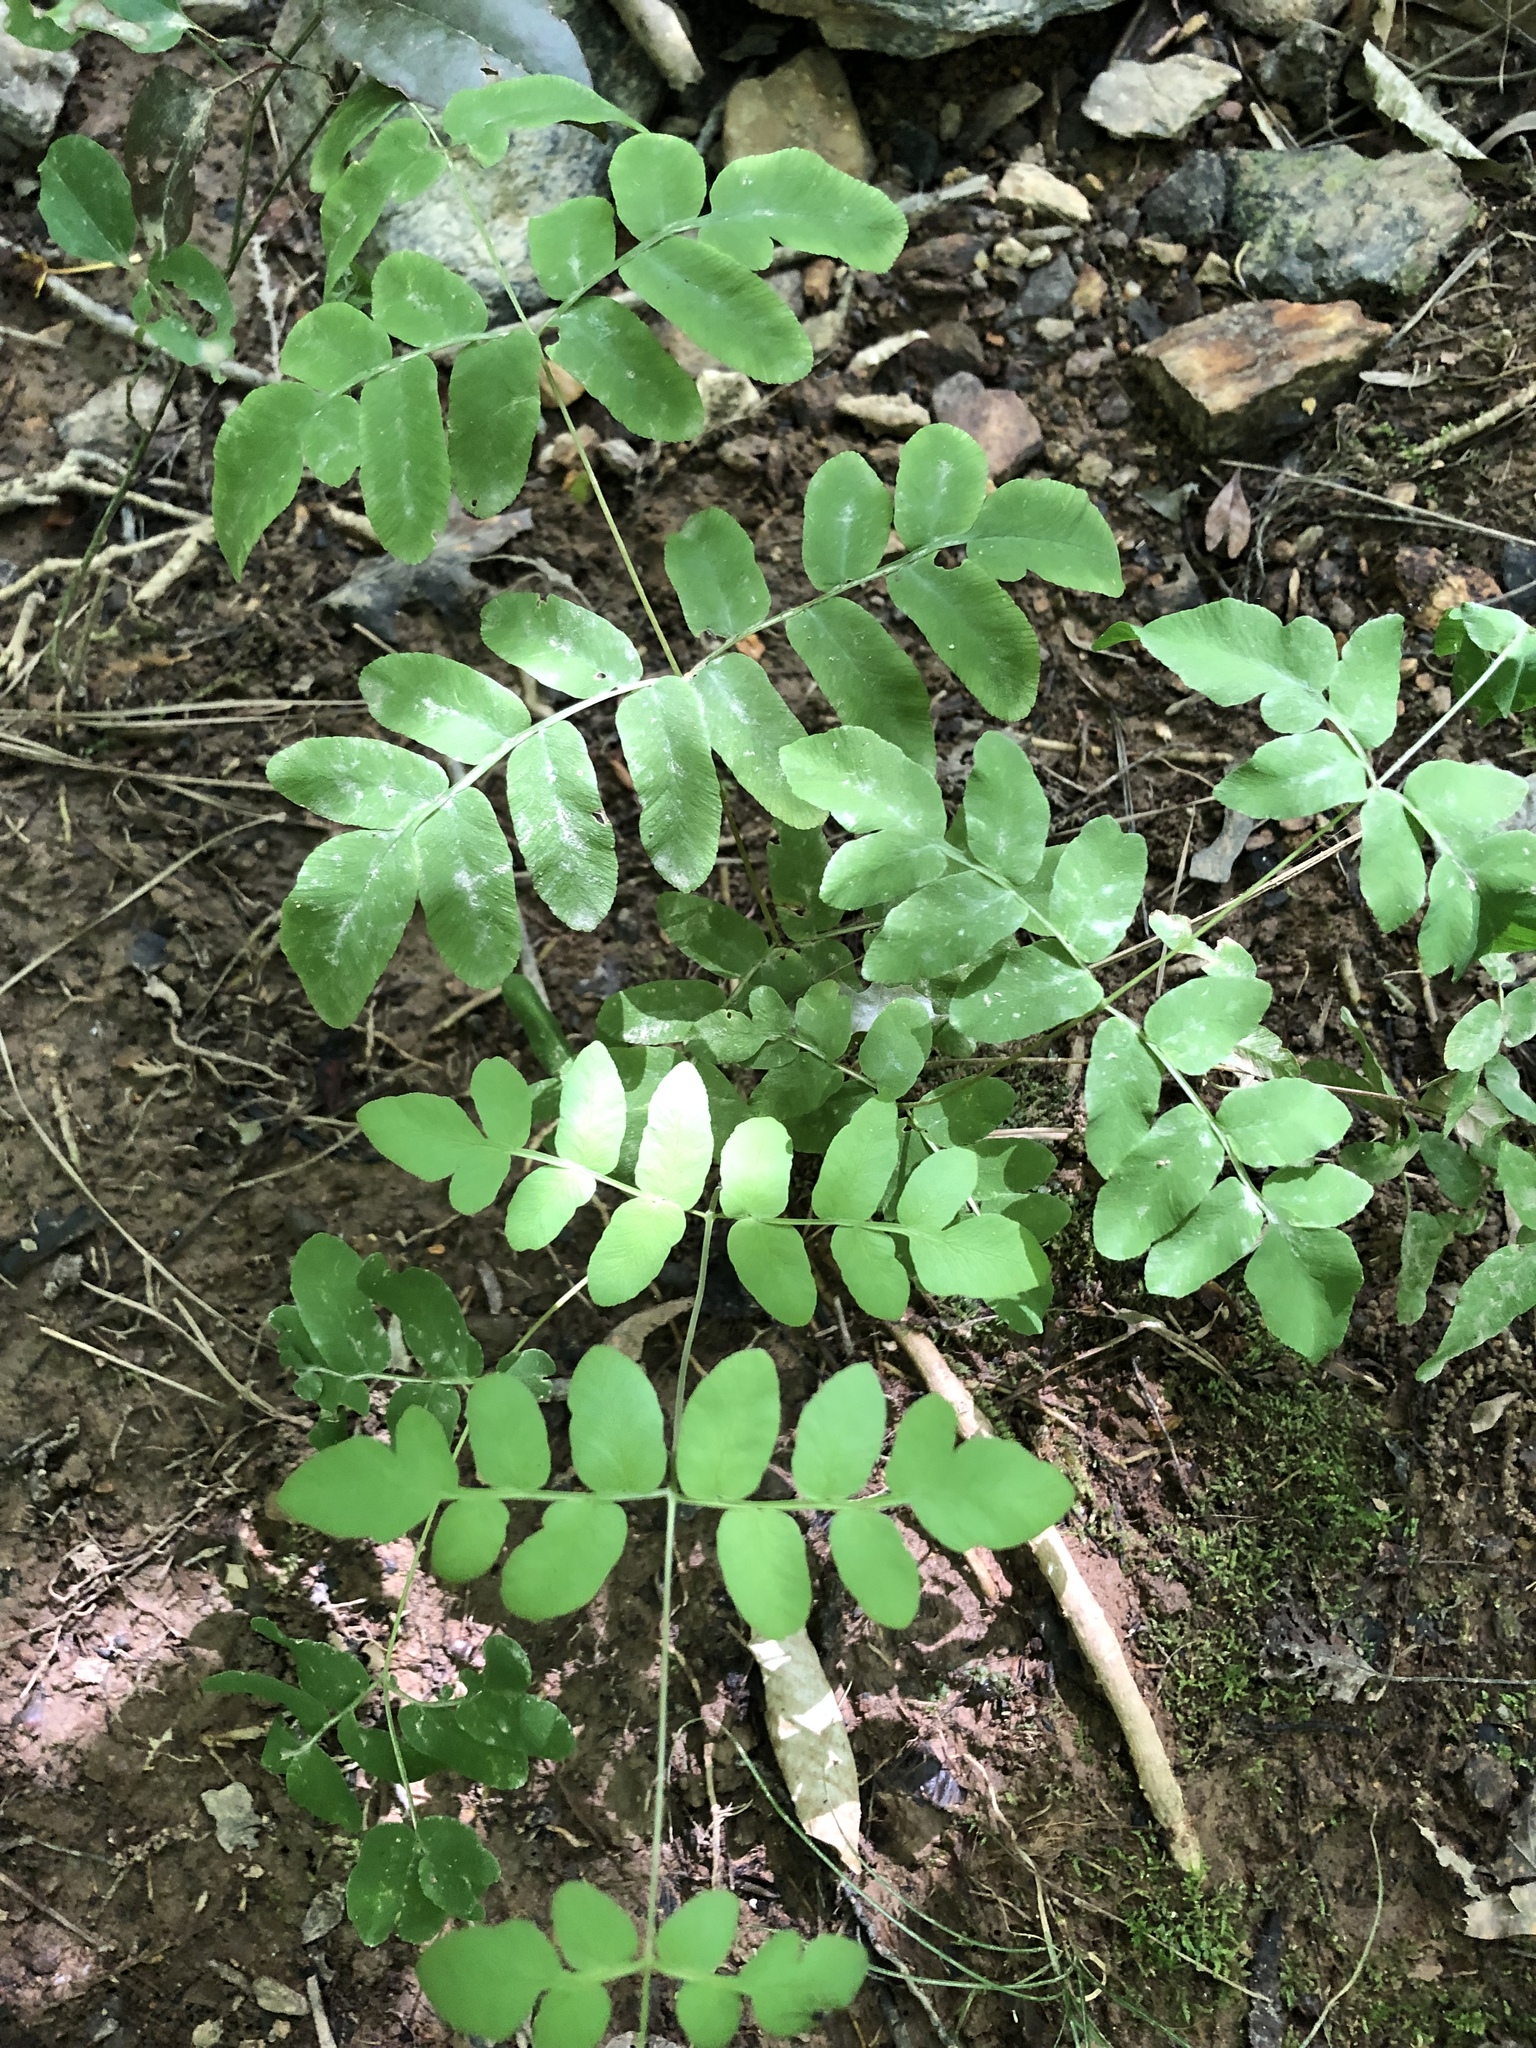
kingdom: Plantae
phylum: Tracheophyta
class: Polypodiopsida
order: Osmundales
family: Osmundaceae
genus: Osmunda
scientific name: Osmunda spectabilis
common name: American royal fern
